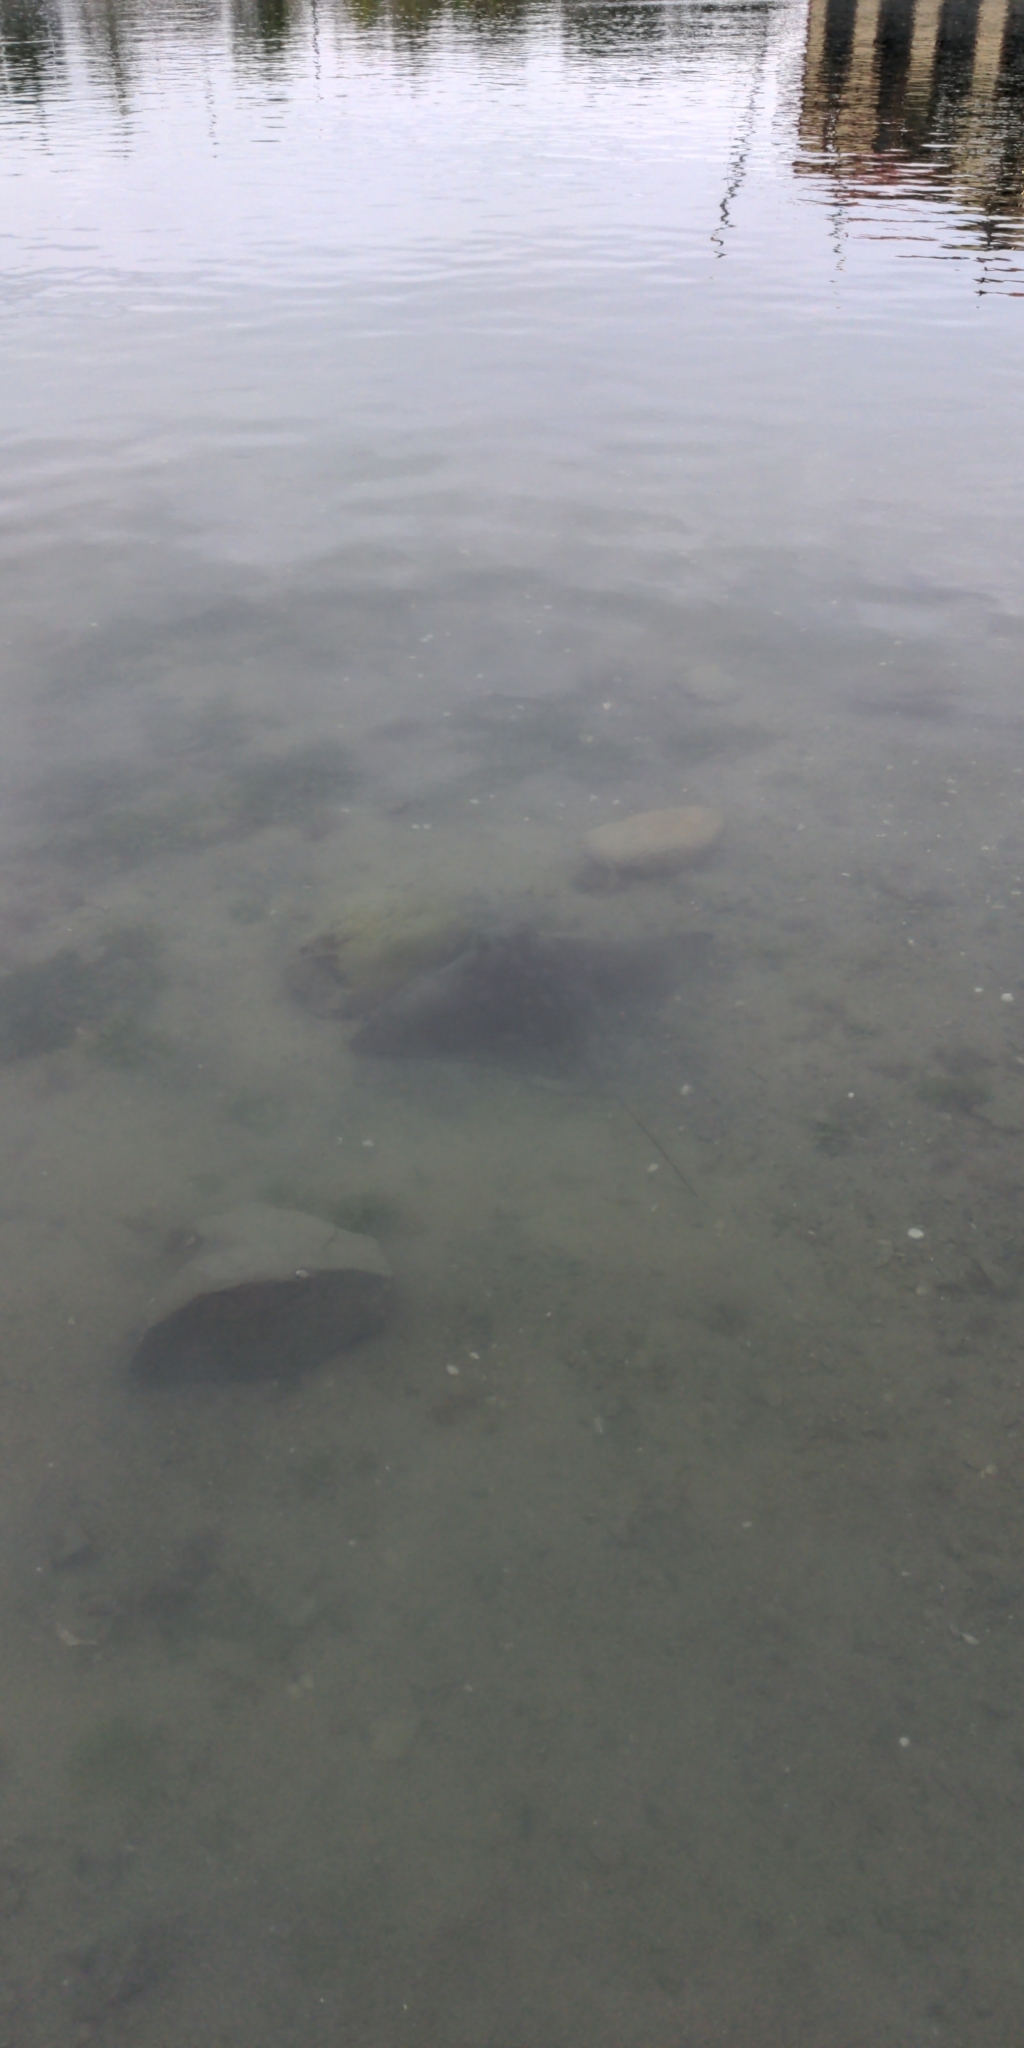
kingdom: Animalia
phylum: Chordata
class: Elasmobranchii
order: Myliobatiformes
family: Myliobatidae
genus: Myliobatis
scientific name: Myliobatis tenuicaudatus
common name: Eagle ray
